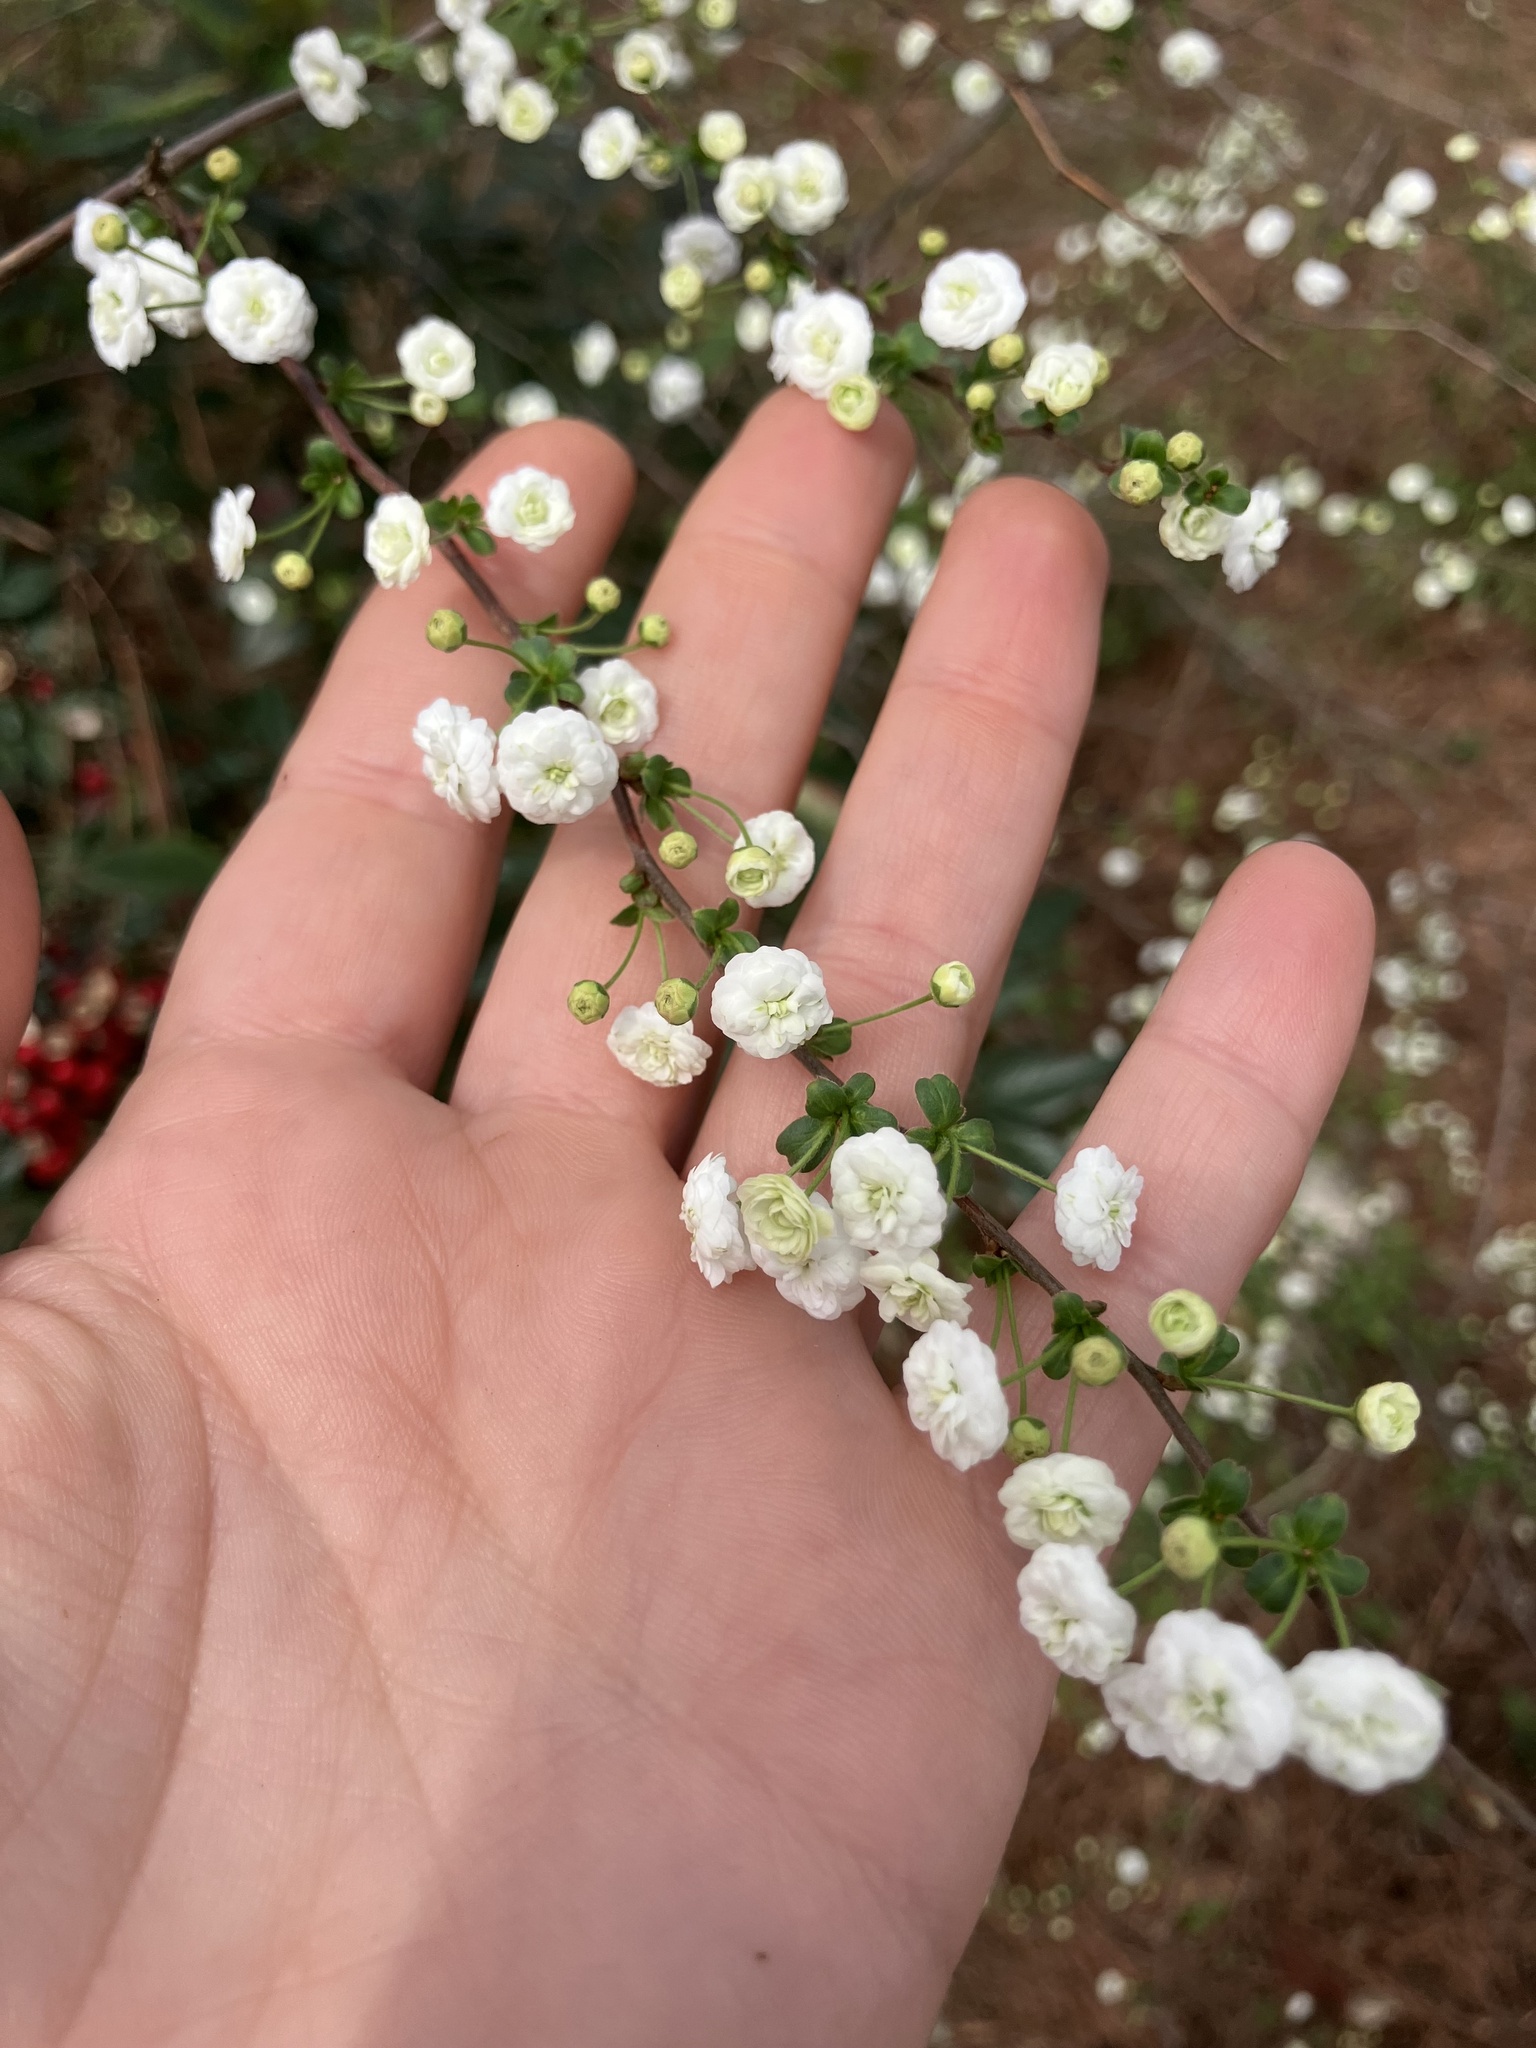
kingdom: Plantae
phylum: Tracheophyta
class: Magnoliopsida
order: Rosales
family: Rosaceae
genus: Spiraea
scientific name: Spiraea prunifolia
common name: Bridal-wreath spiraea
